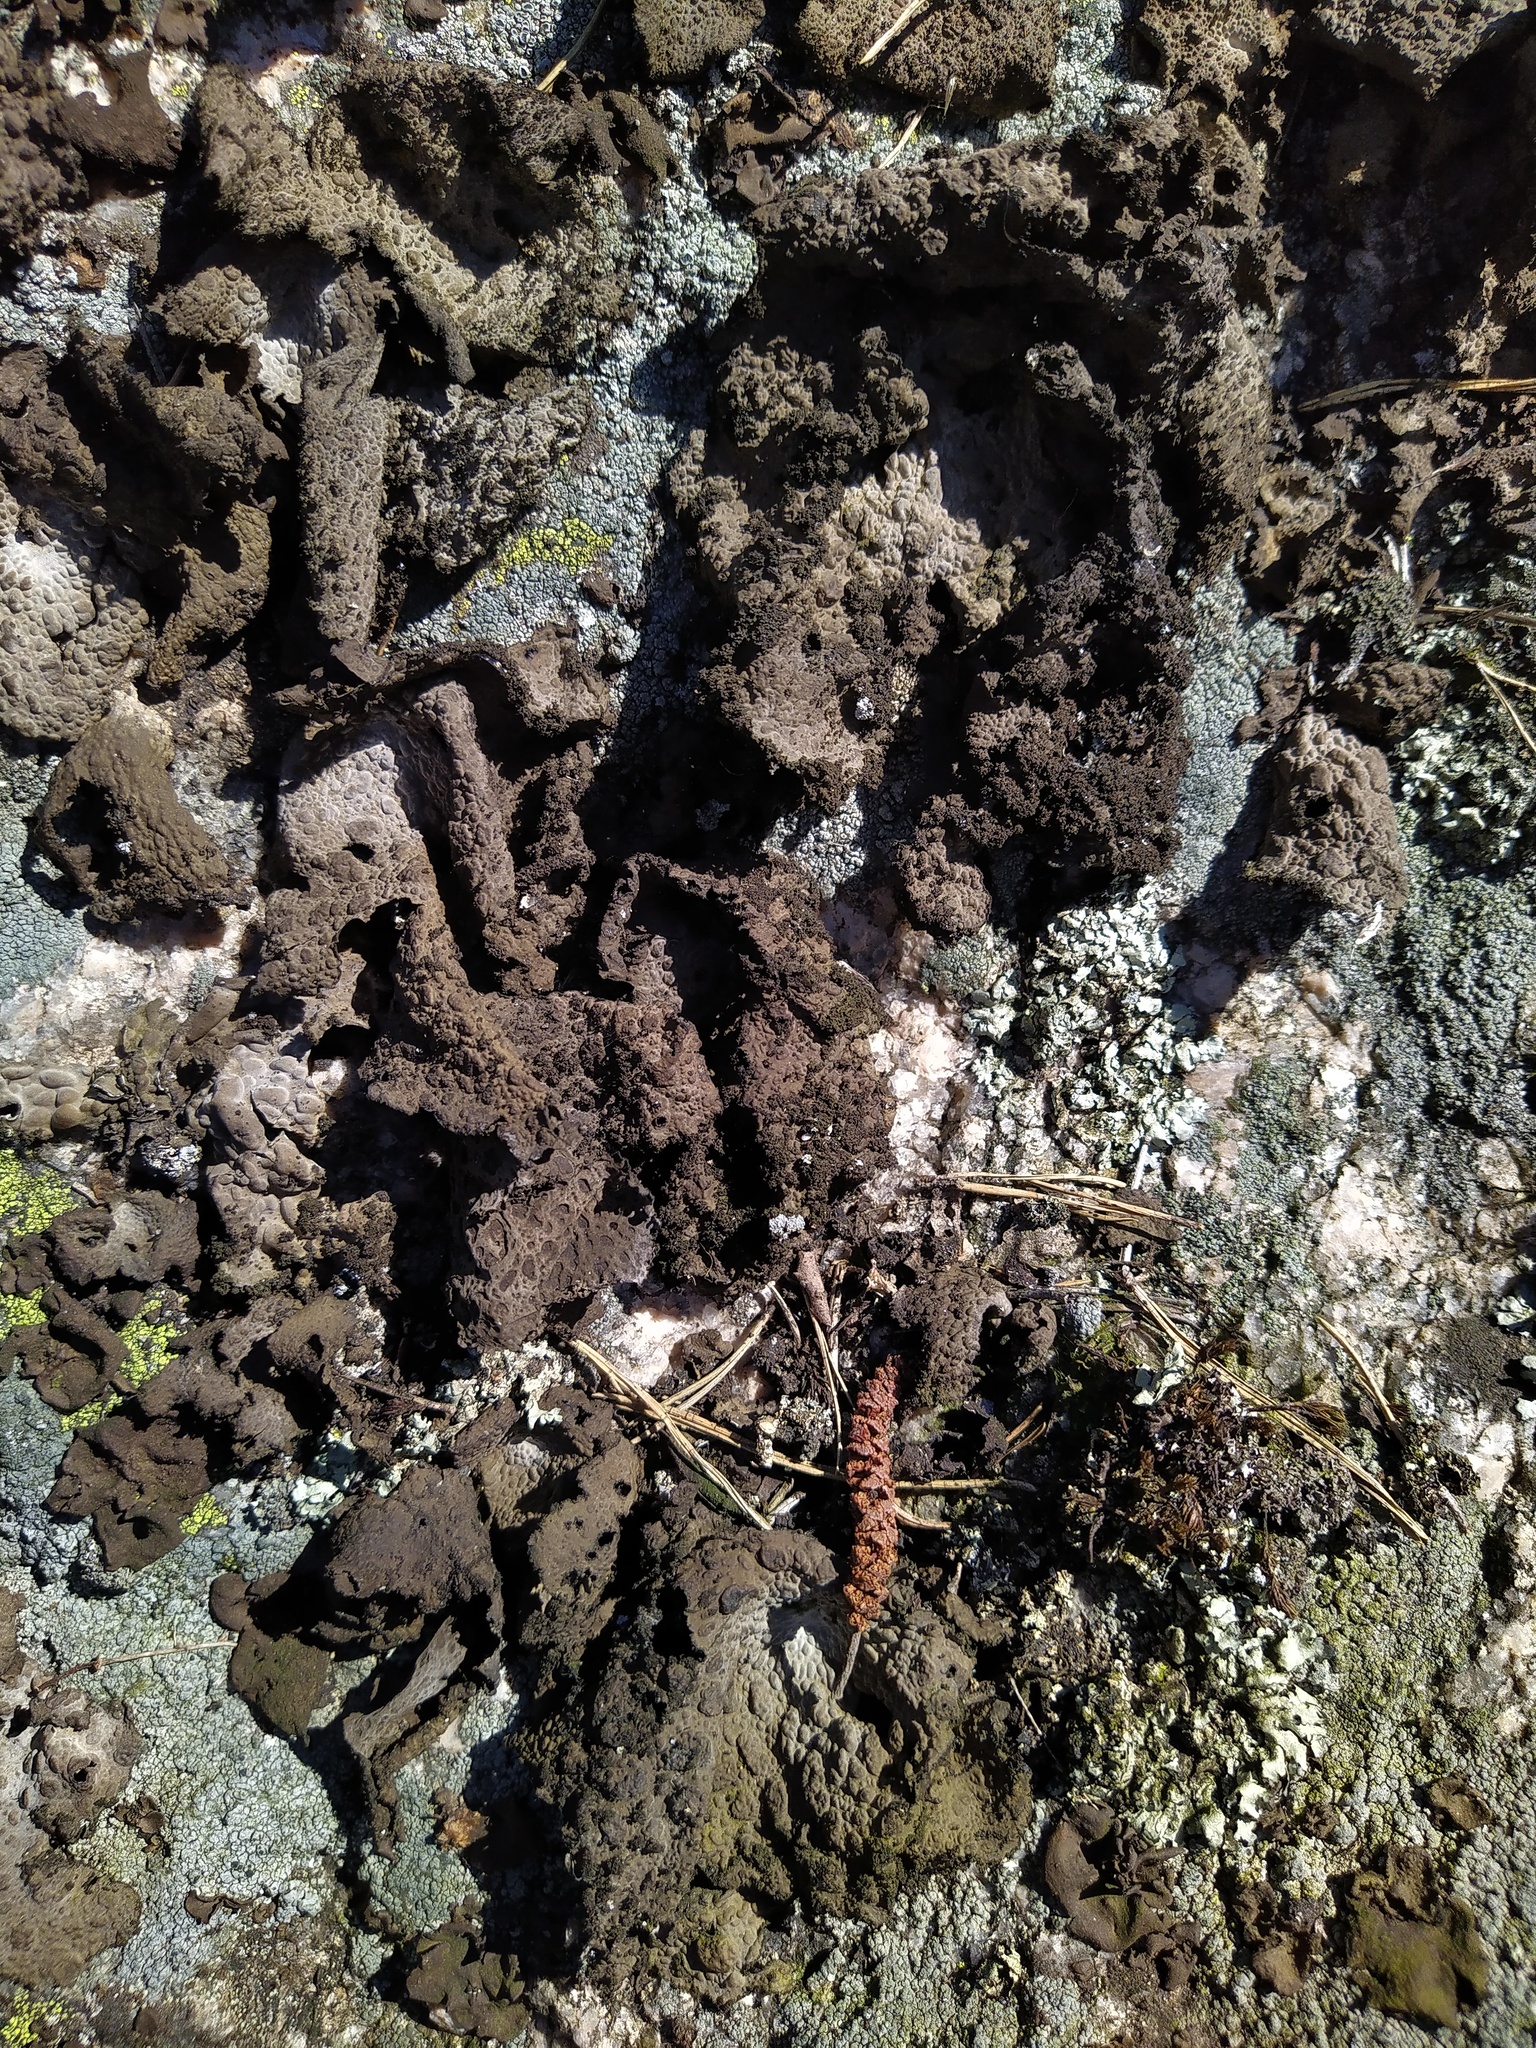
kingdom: Fungi
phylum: Ascomycota
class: Lecanoromycetes
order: Umbilicariales
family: Umbilicariaceae
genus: Lasallia
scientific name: Lasallia pustulata
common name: Blistered toadskin lichen
